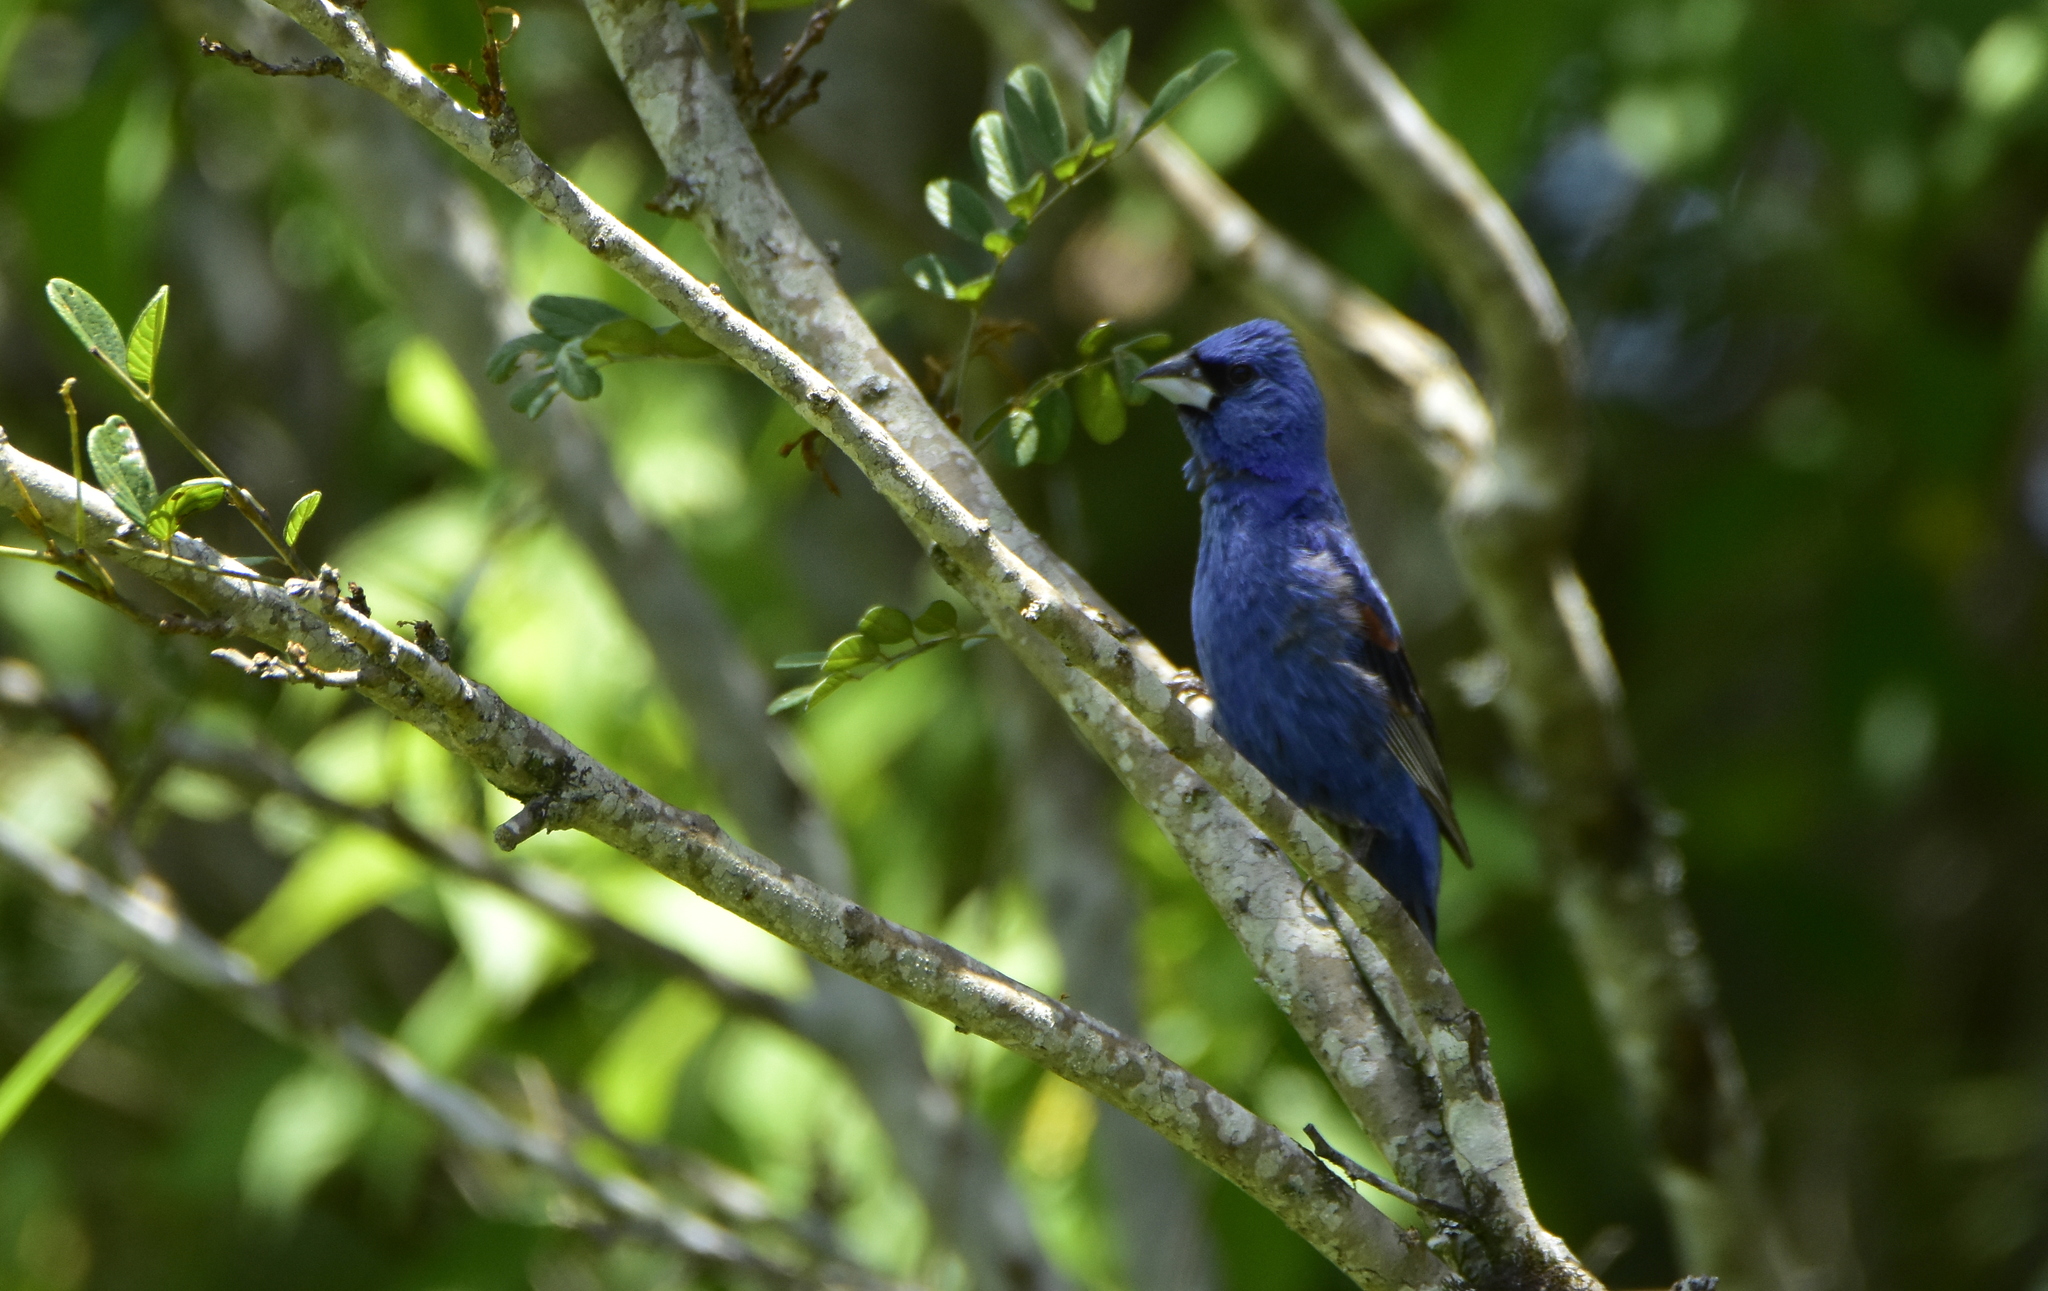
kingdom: Animalia
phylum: Chordata
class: Aves
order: Passeriformes
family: Cardinalidae
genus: Passerina
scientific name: Passerina caerulea
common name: Blue grosbeak
